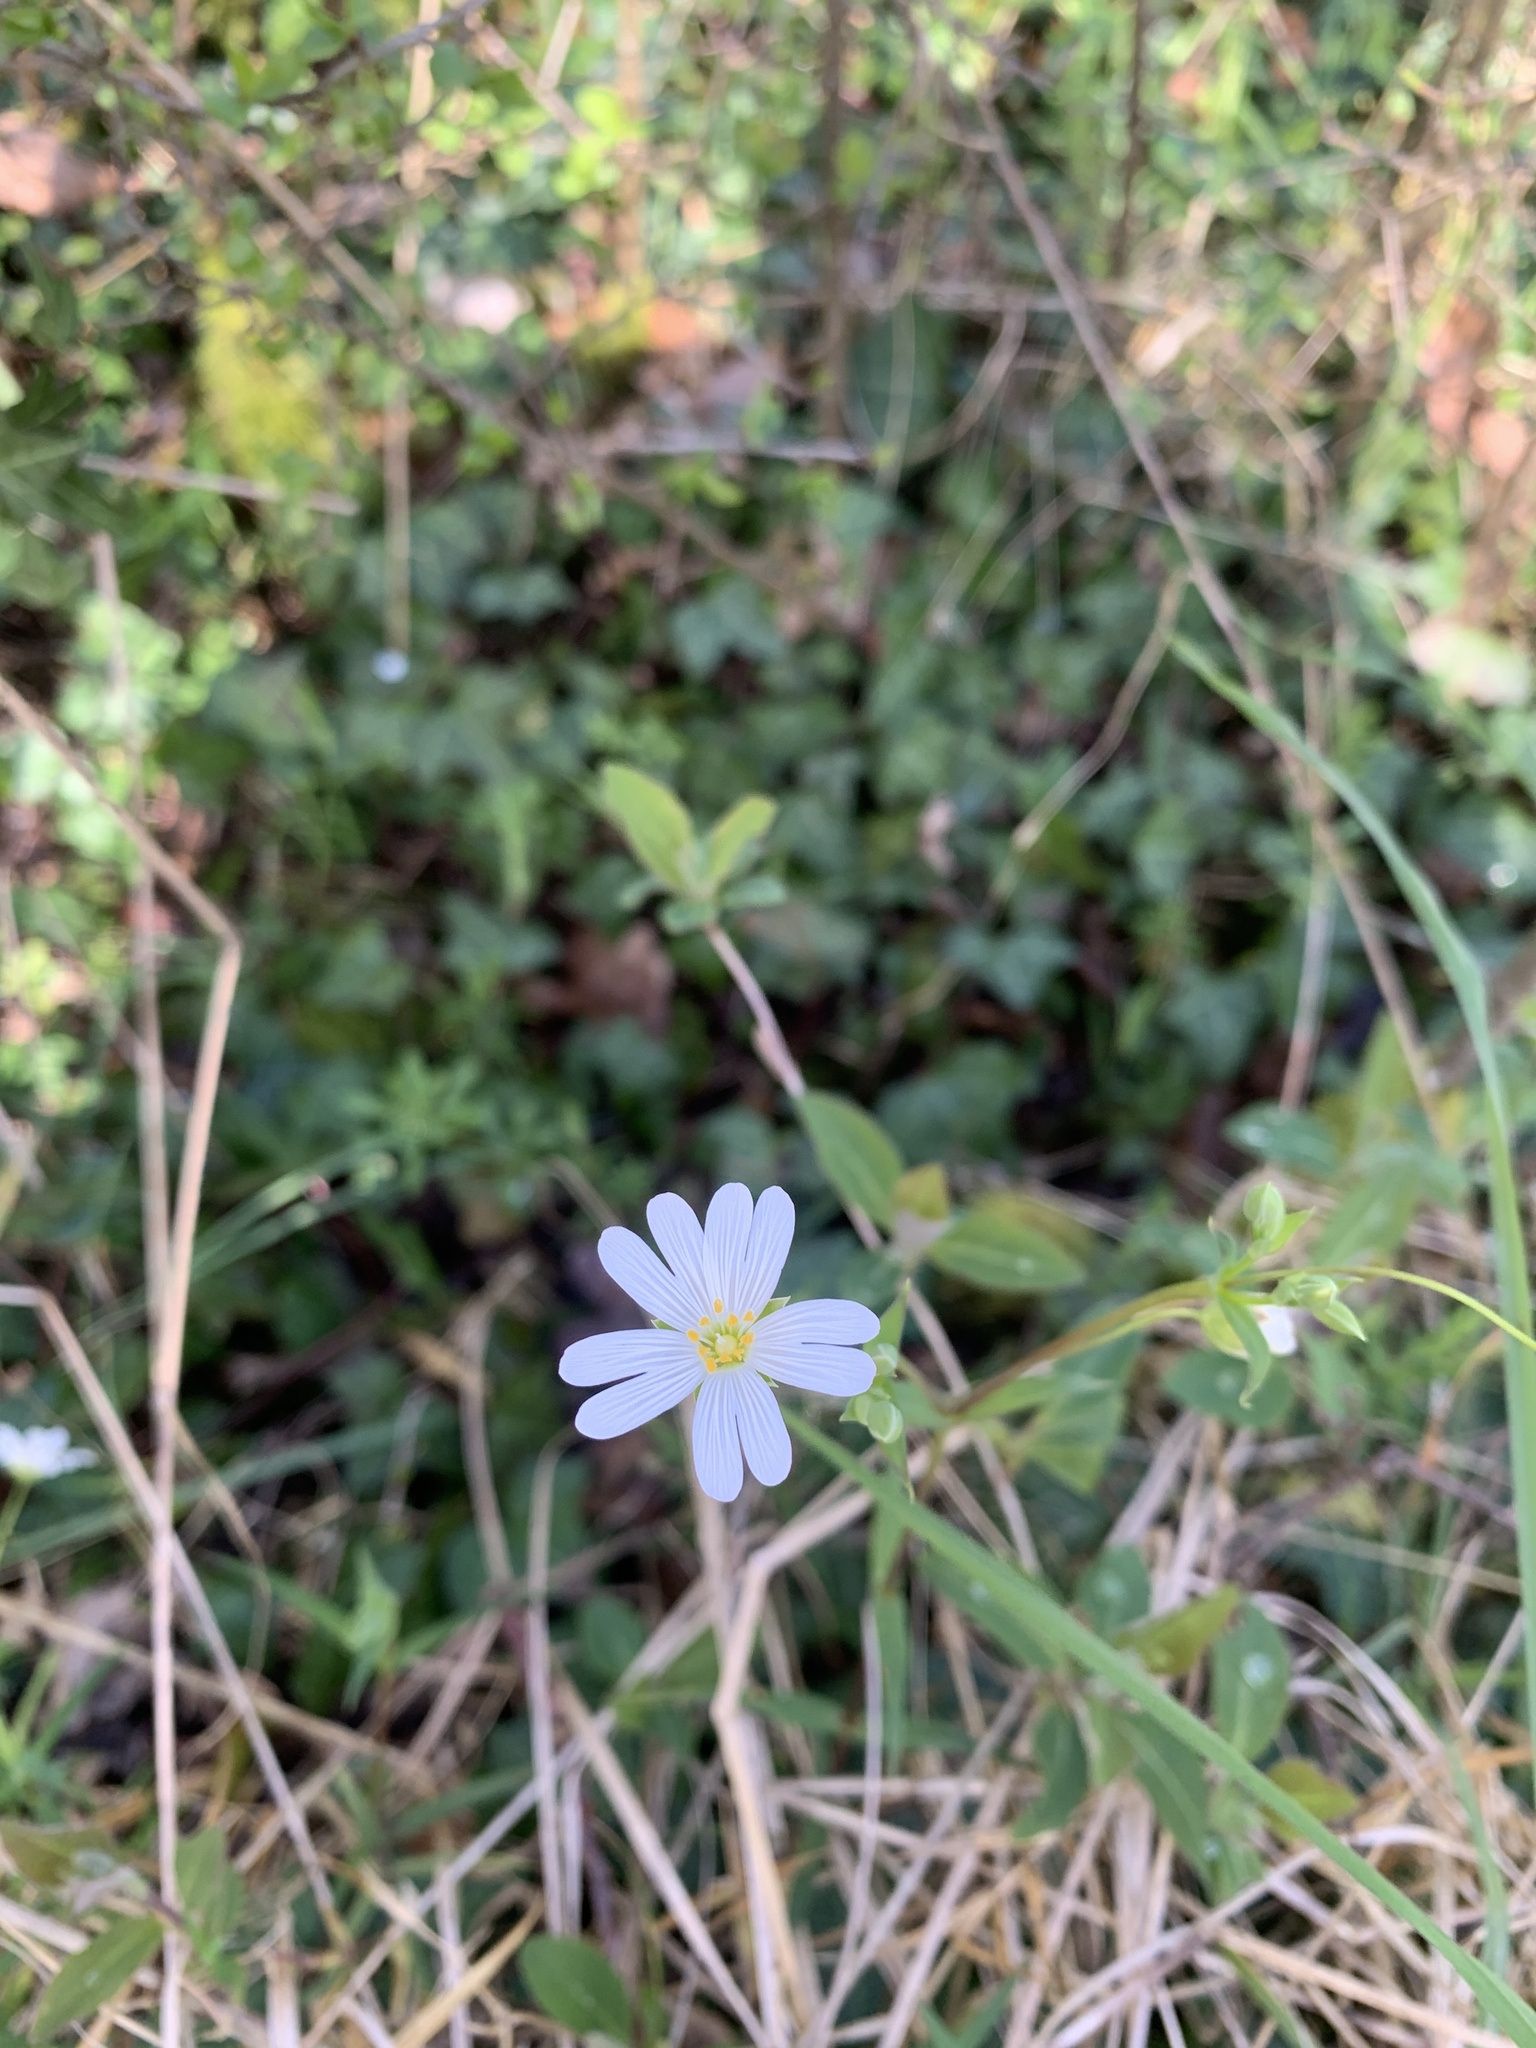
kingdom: Plantae
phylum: Tracheophyta
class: Magnoliopsida
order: Caryophyllales
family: Caryophyllaceae
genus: Rabelera
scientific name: Rabelera holostea
